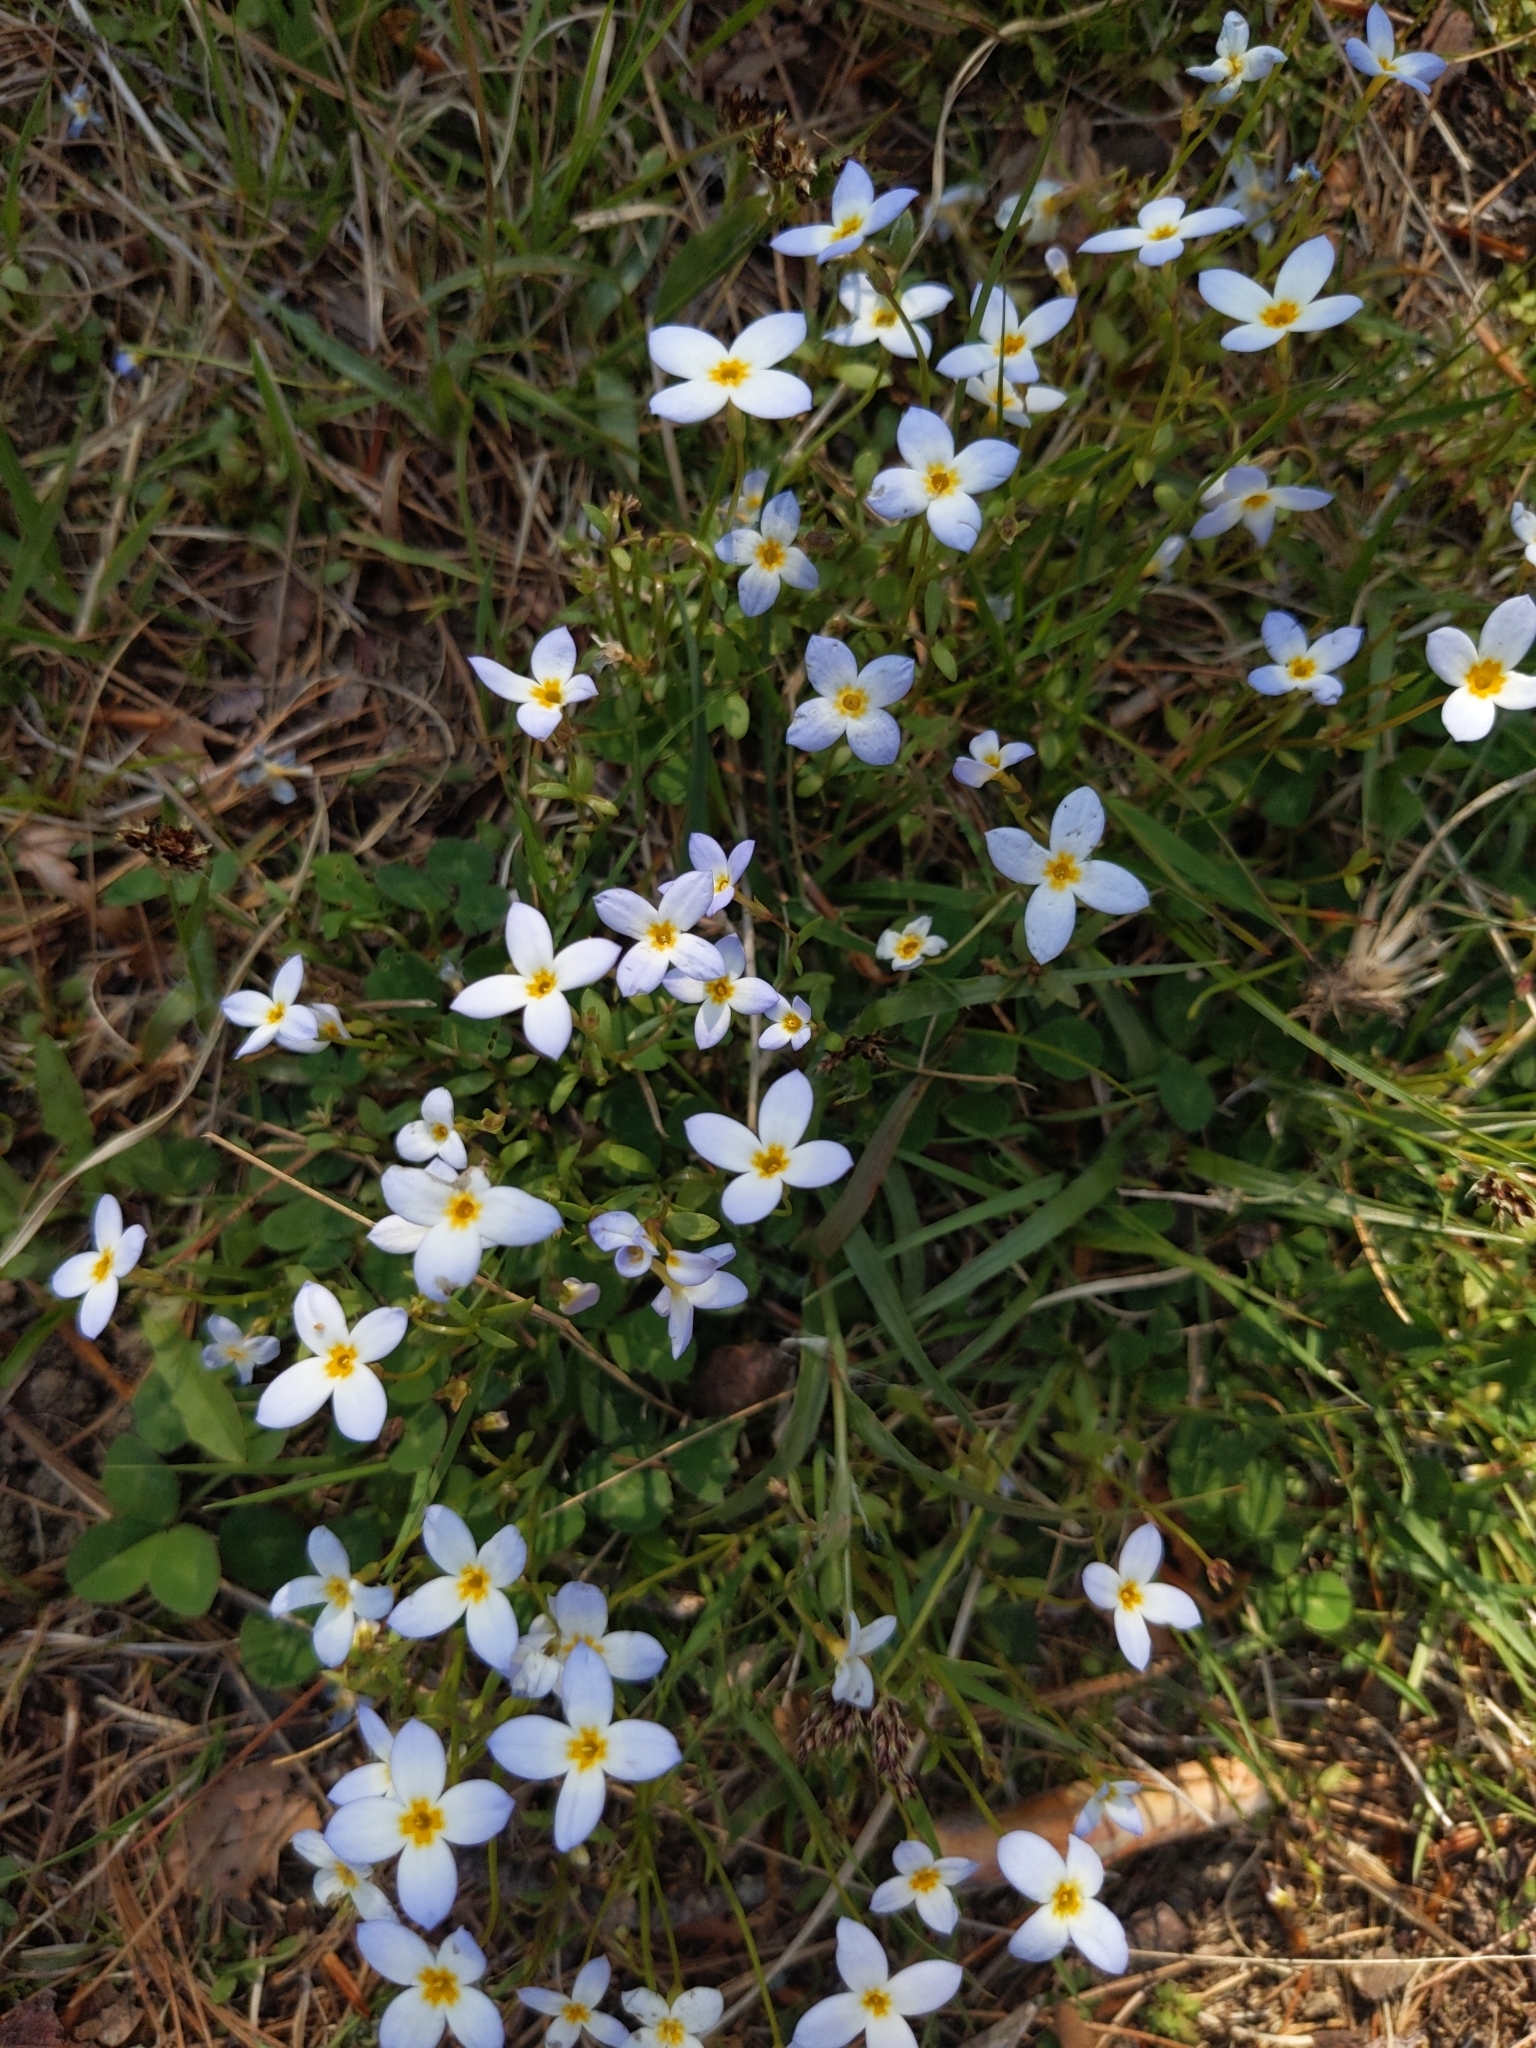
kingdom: Plantae
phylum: Tracheophyta
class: Magnoliopsida
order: Gentianales
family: Rubiaceae
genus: Houstonia
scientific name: Houstonia caerulea
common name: Bluets
